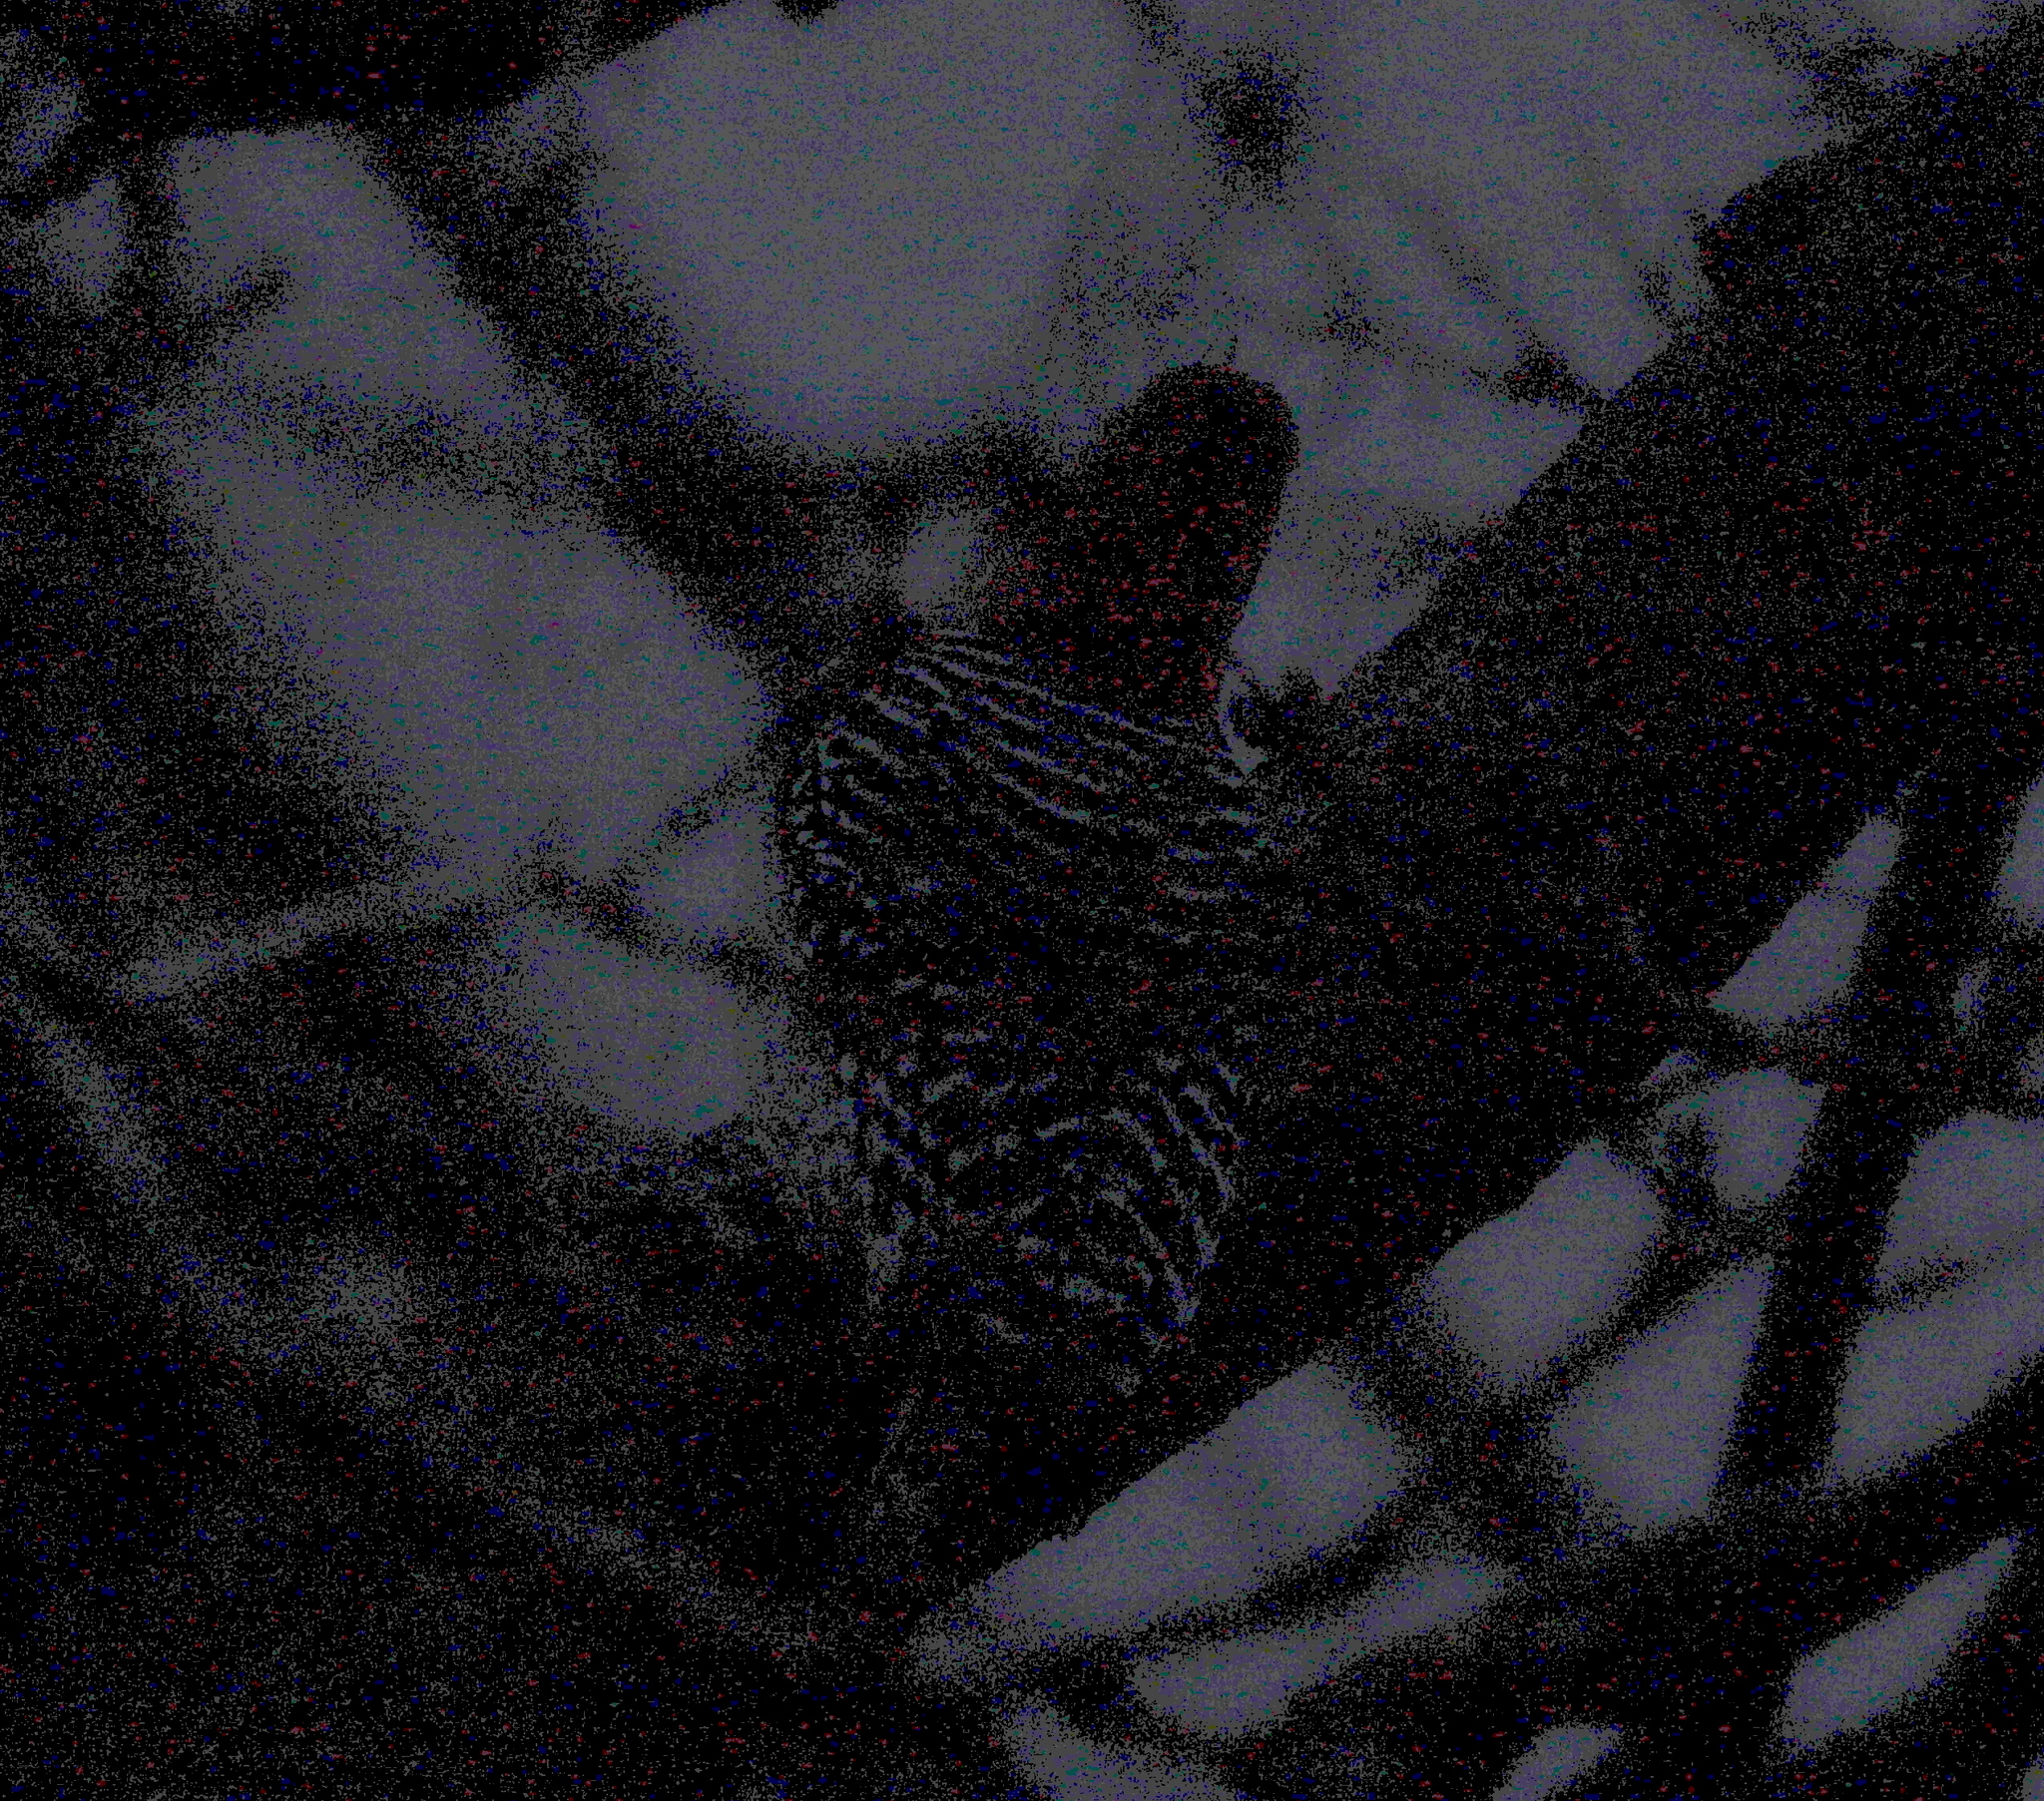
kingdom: Animalia
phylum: Chordata
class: Aves
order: Piciformes
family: Picidae
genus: Melanerpes
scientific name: Melanerpes carolinus
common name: Red-bellied woodpecker
